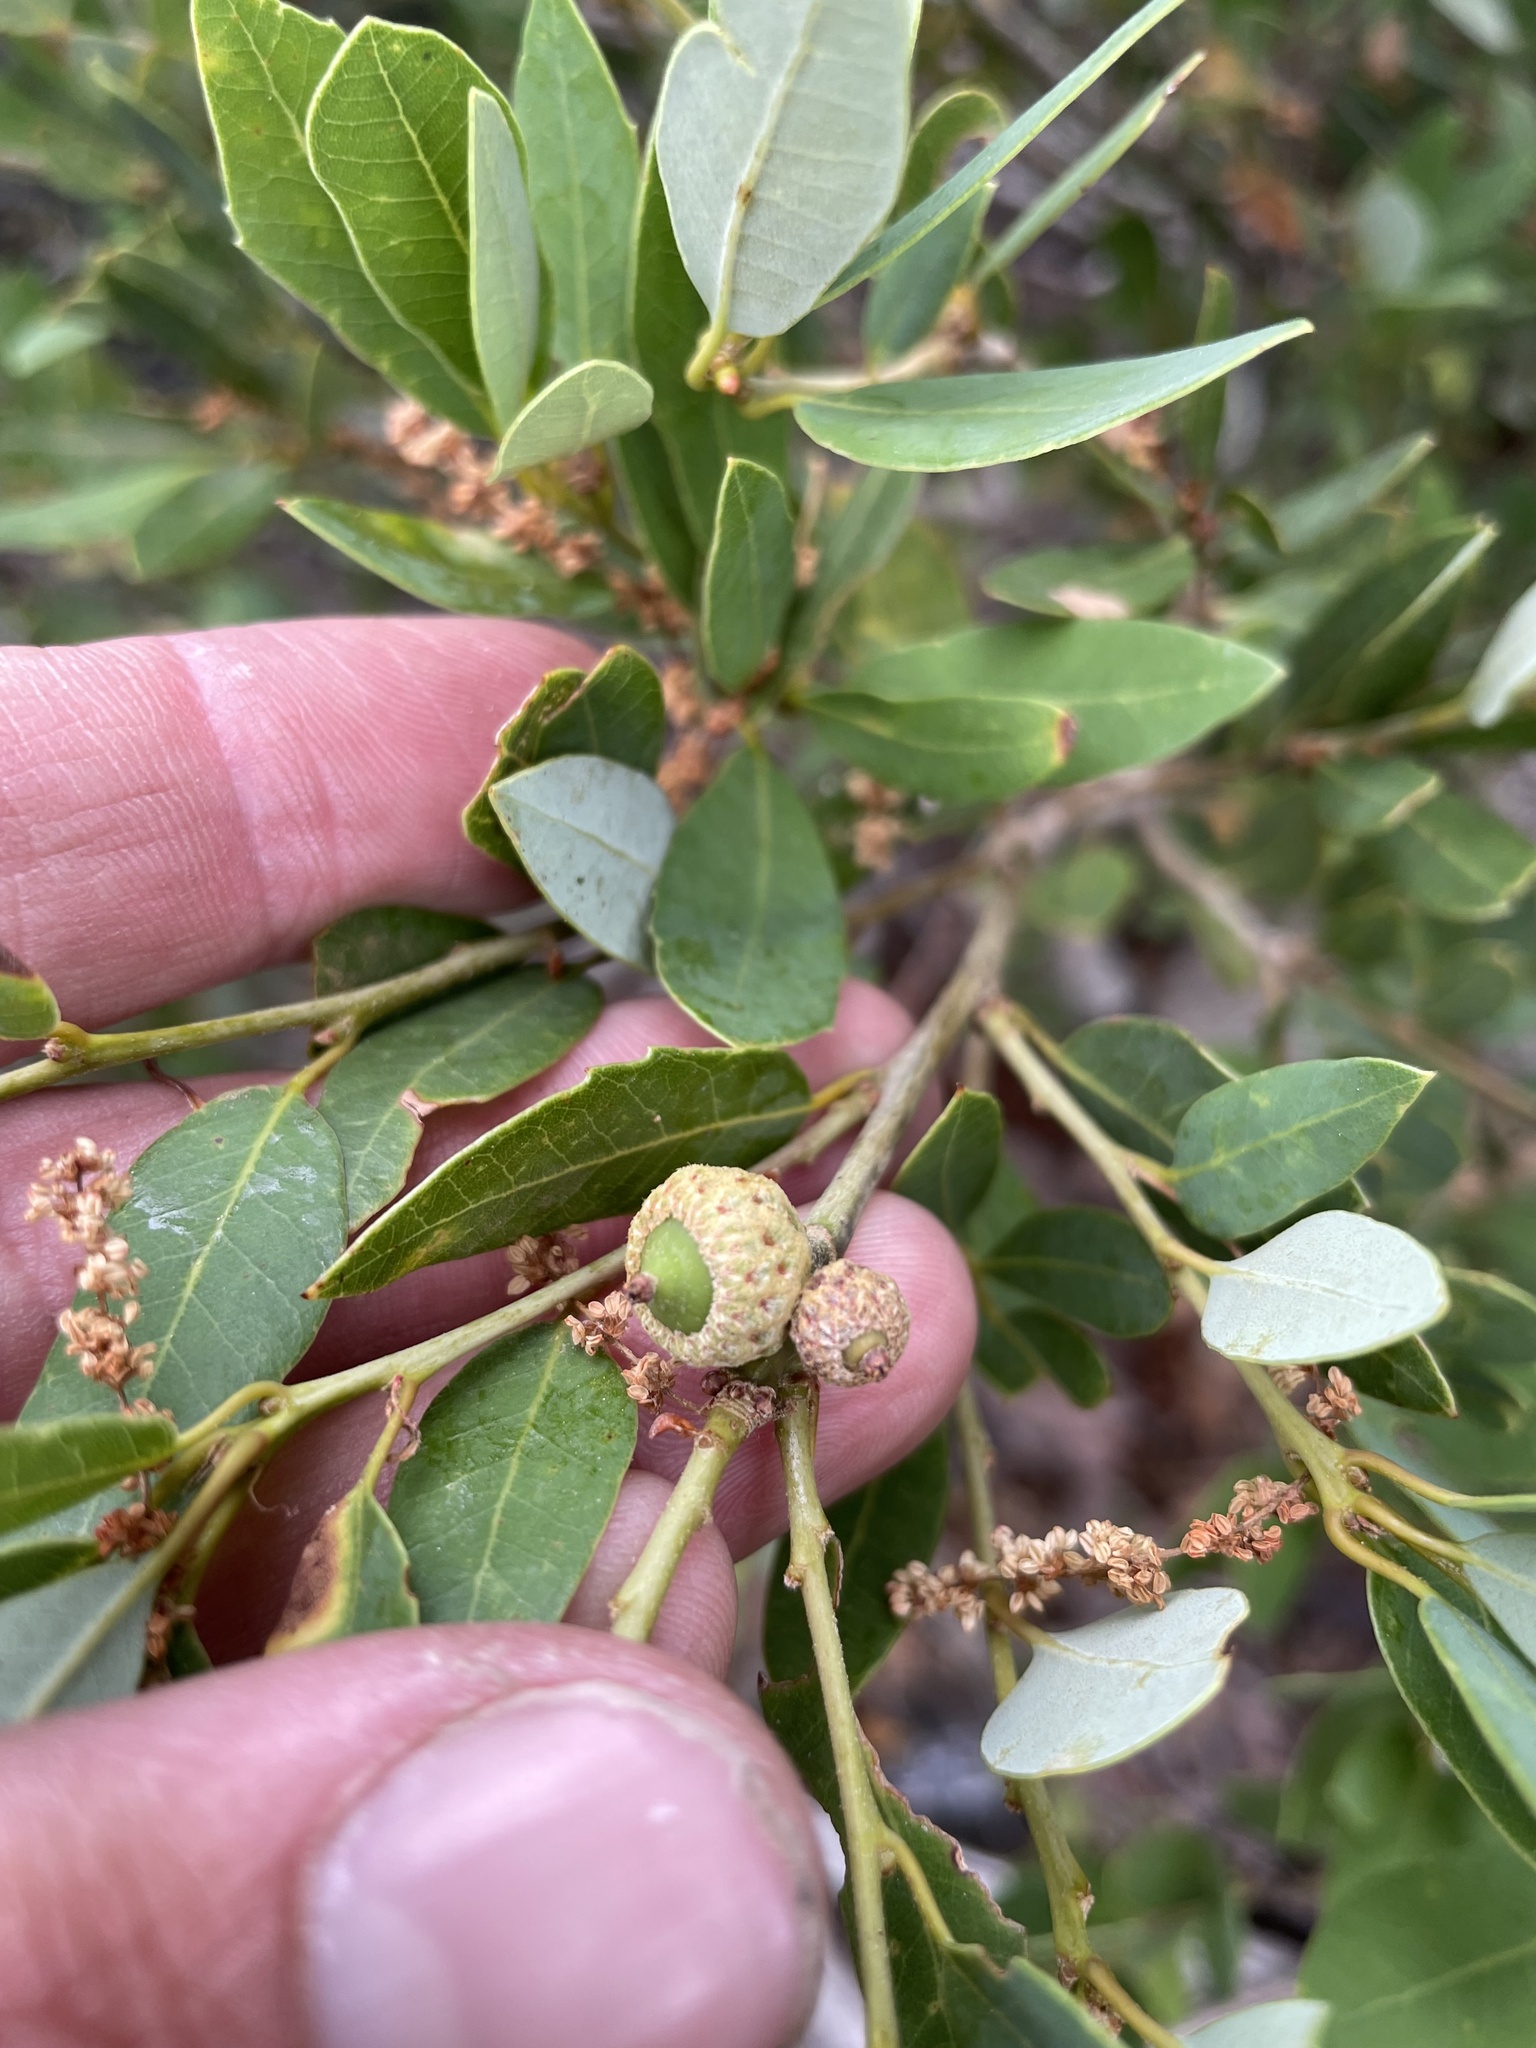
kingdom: Plantae
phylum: Tracheophyta
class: Magnoliopsida
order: Fagales
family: Fagaceae
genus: Quercus
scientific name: Quercus vacciniifolia
